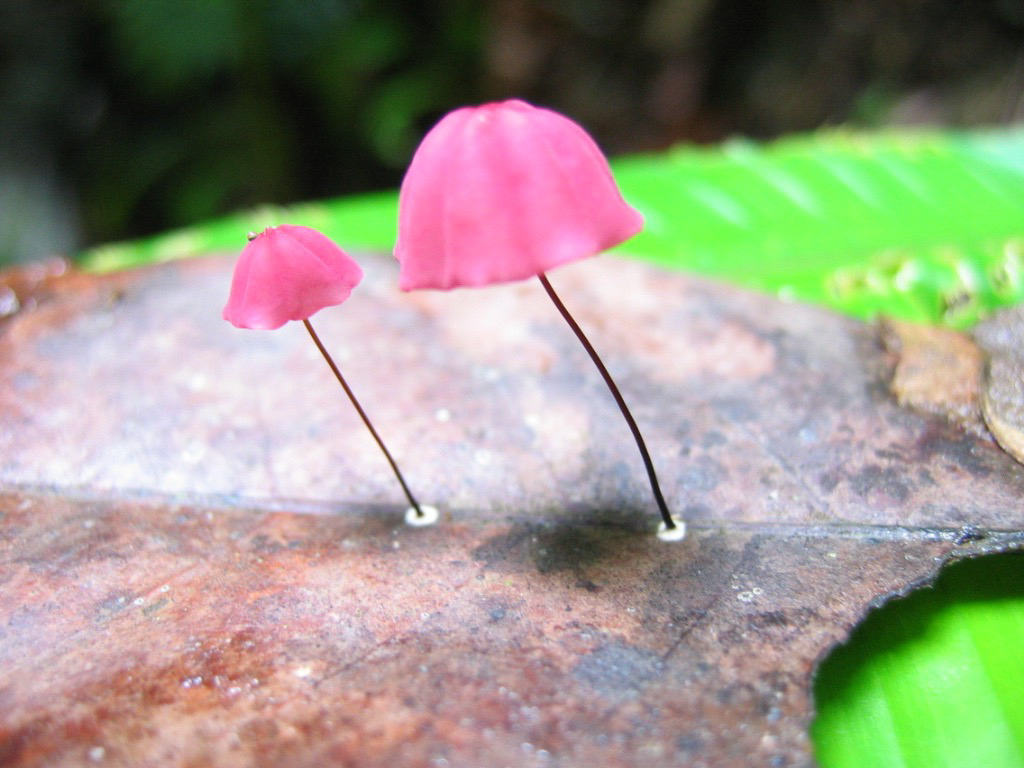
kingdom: Fungi
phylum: Basidiomycota
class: Agaricomycetes
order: Agaricales
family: Marasmiaceae
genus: Marasmius
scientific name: Marasmius haematocephalus
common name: Purple pinwheel
